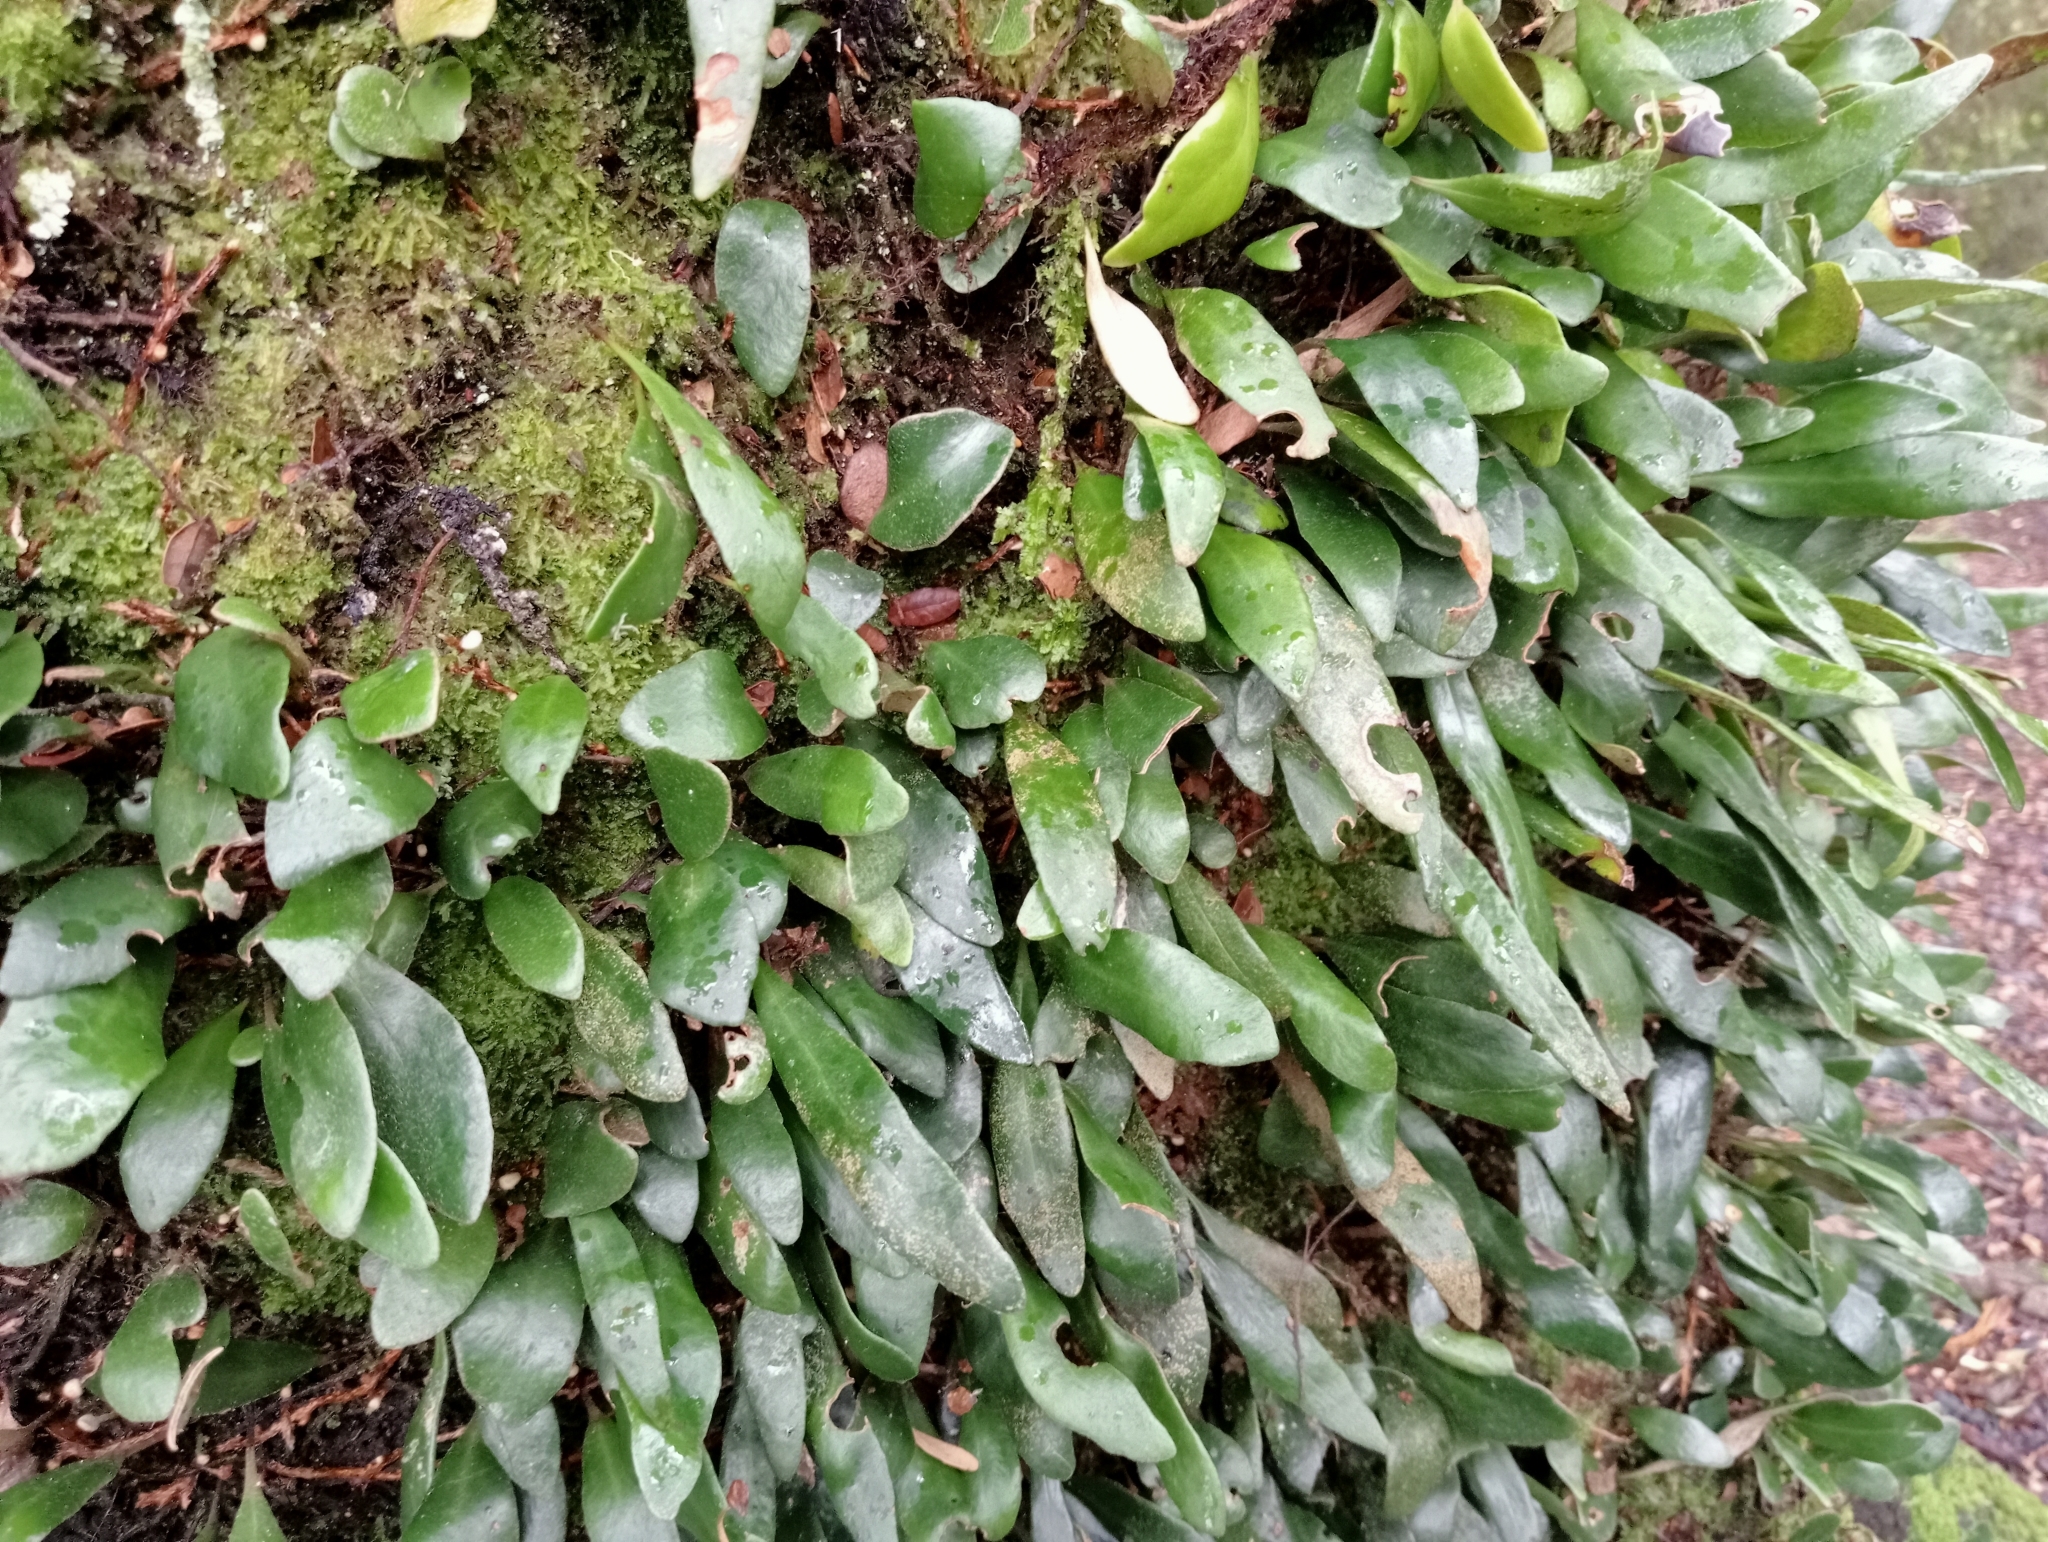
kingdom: Plantae
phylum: Tracheophyta
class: Polypodiopsida
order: Polypodiales
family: Polypodiaceae
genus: Pyrrosia
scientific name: Pyrrosia eleagnifolia
